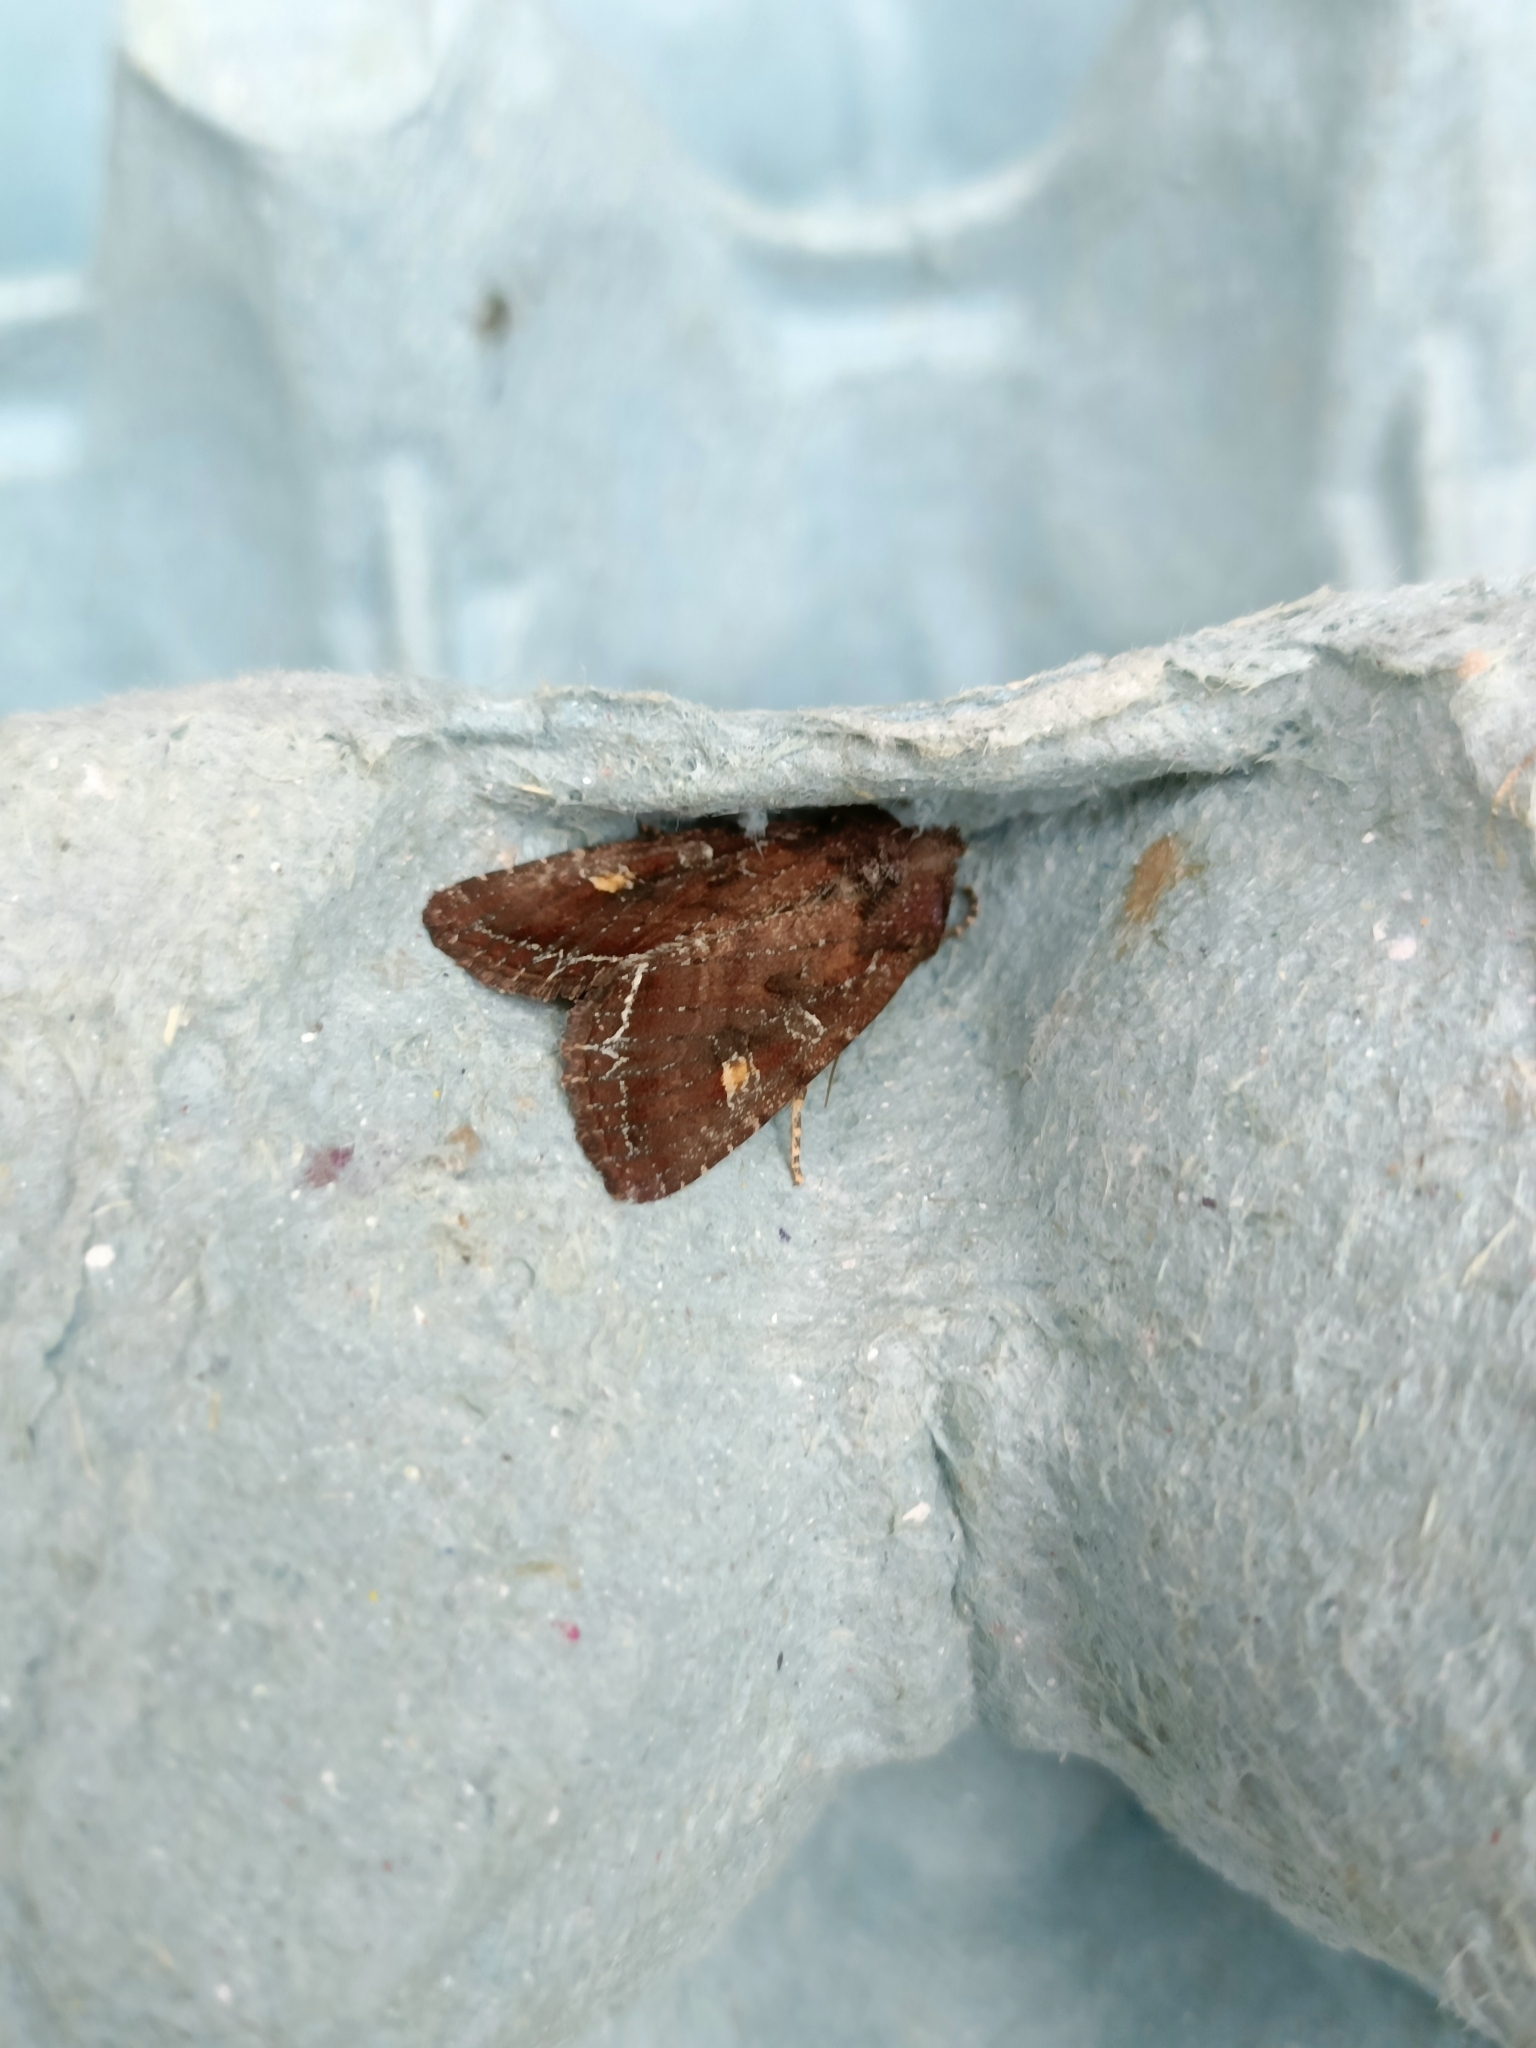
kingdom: Animalia
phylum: Arthropoda
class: Insecta
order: Lepidoptera
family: Noctuidae
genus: Lacanobia
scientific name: Lacanobia oleracea
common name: Bright-line brown-eye
